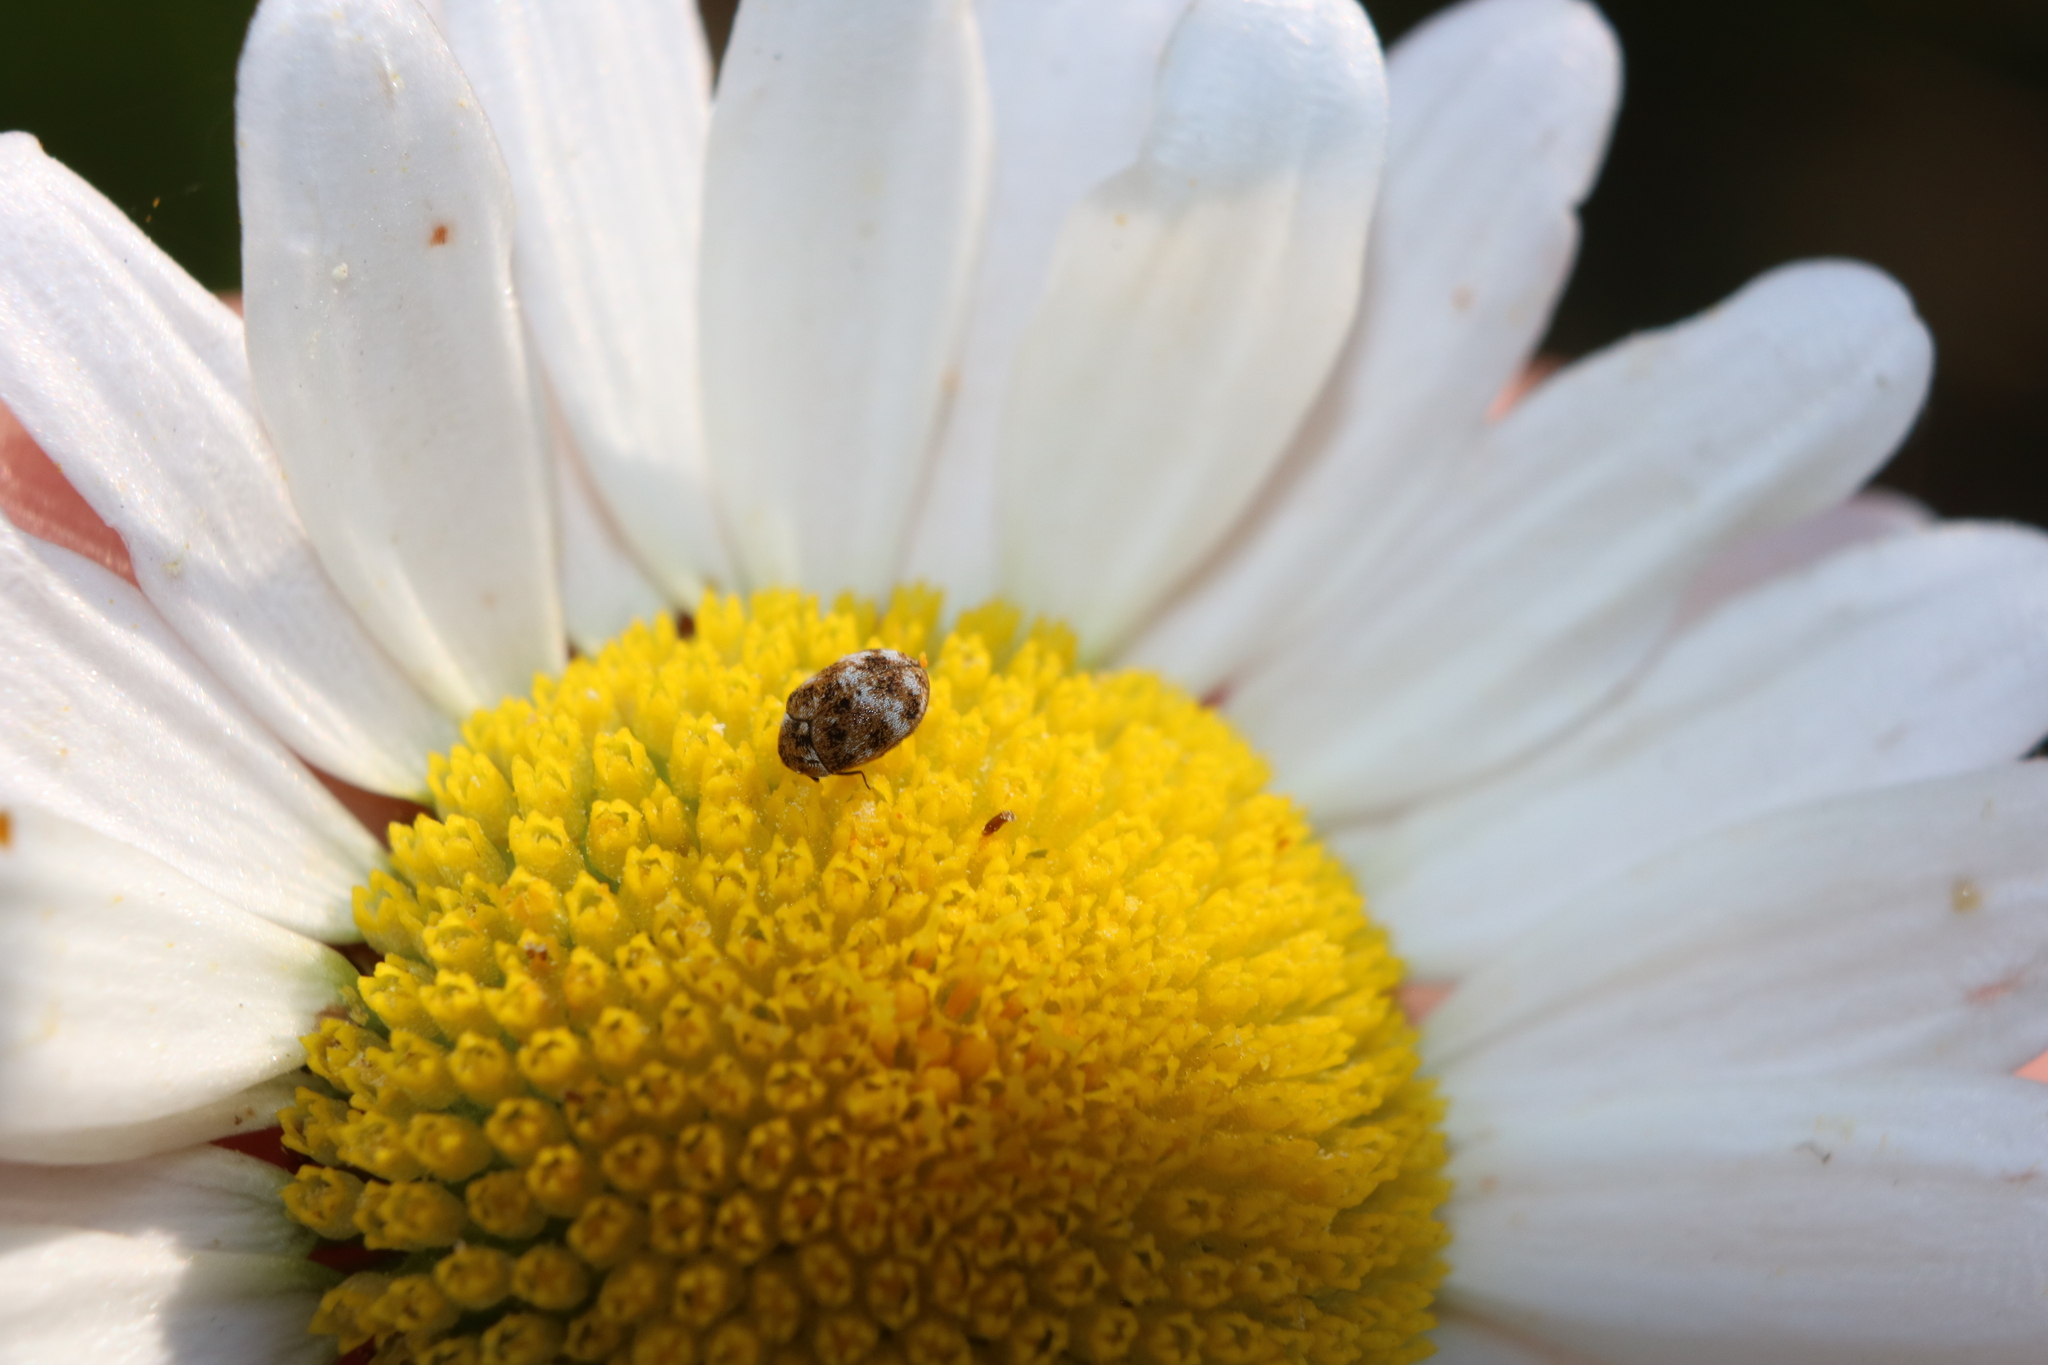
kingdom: Animalia
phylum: Arthropoda
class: Insecta
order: Coleoptera
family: Dermestidae
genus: Anthrenus
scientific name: Anthrenus verbasci
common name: Varied carpet beetle
